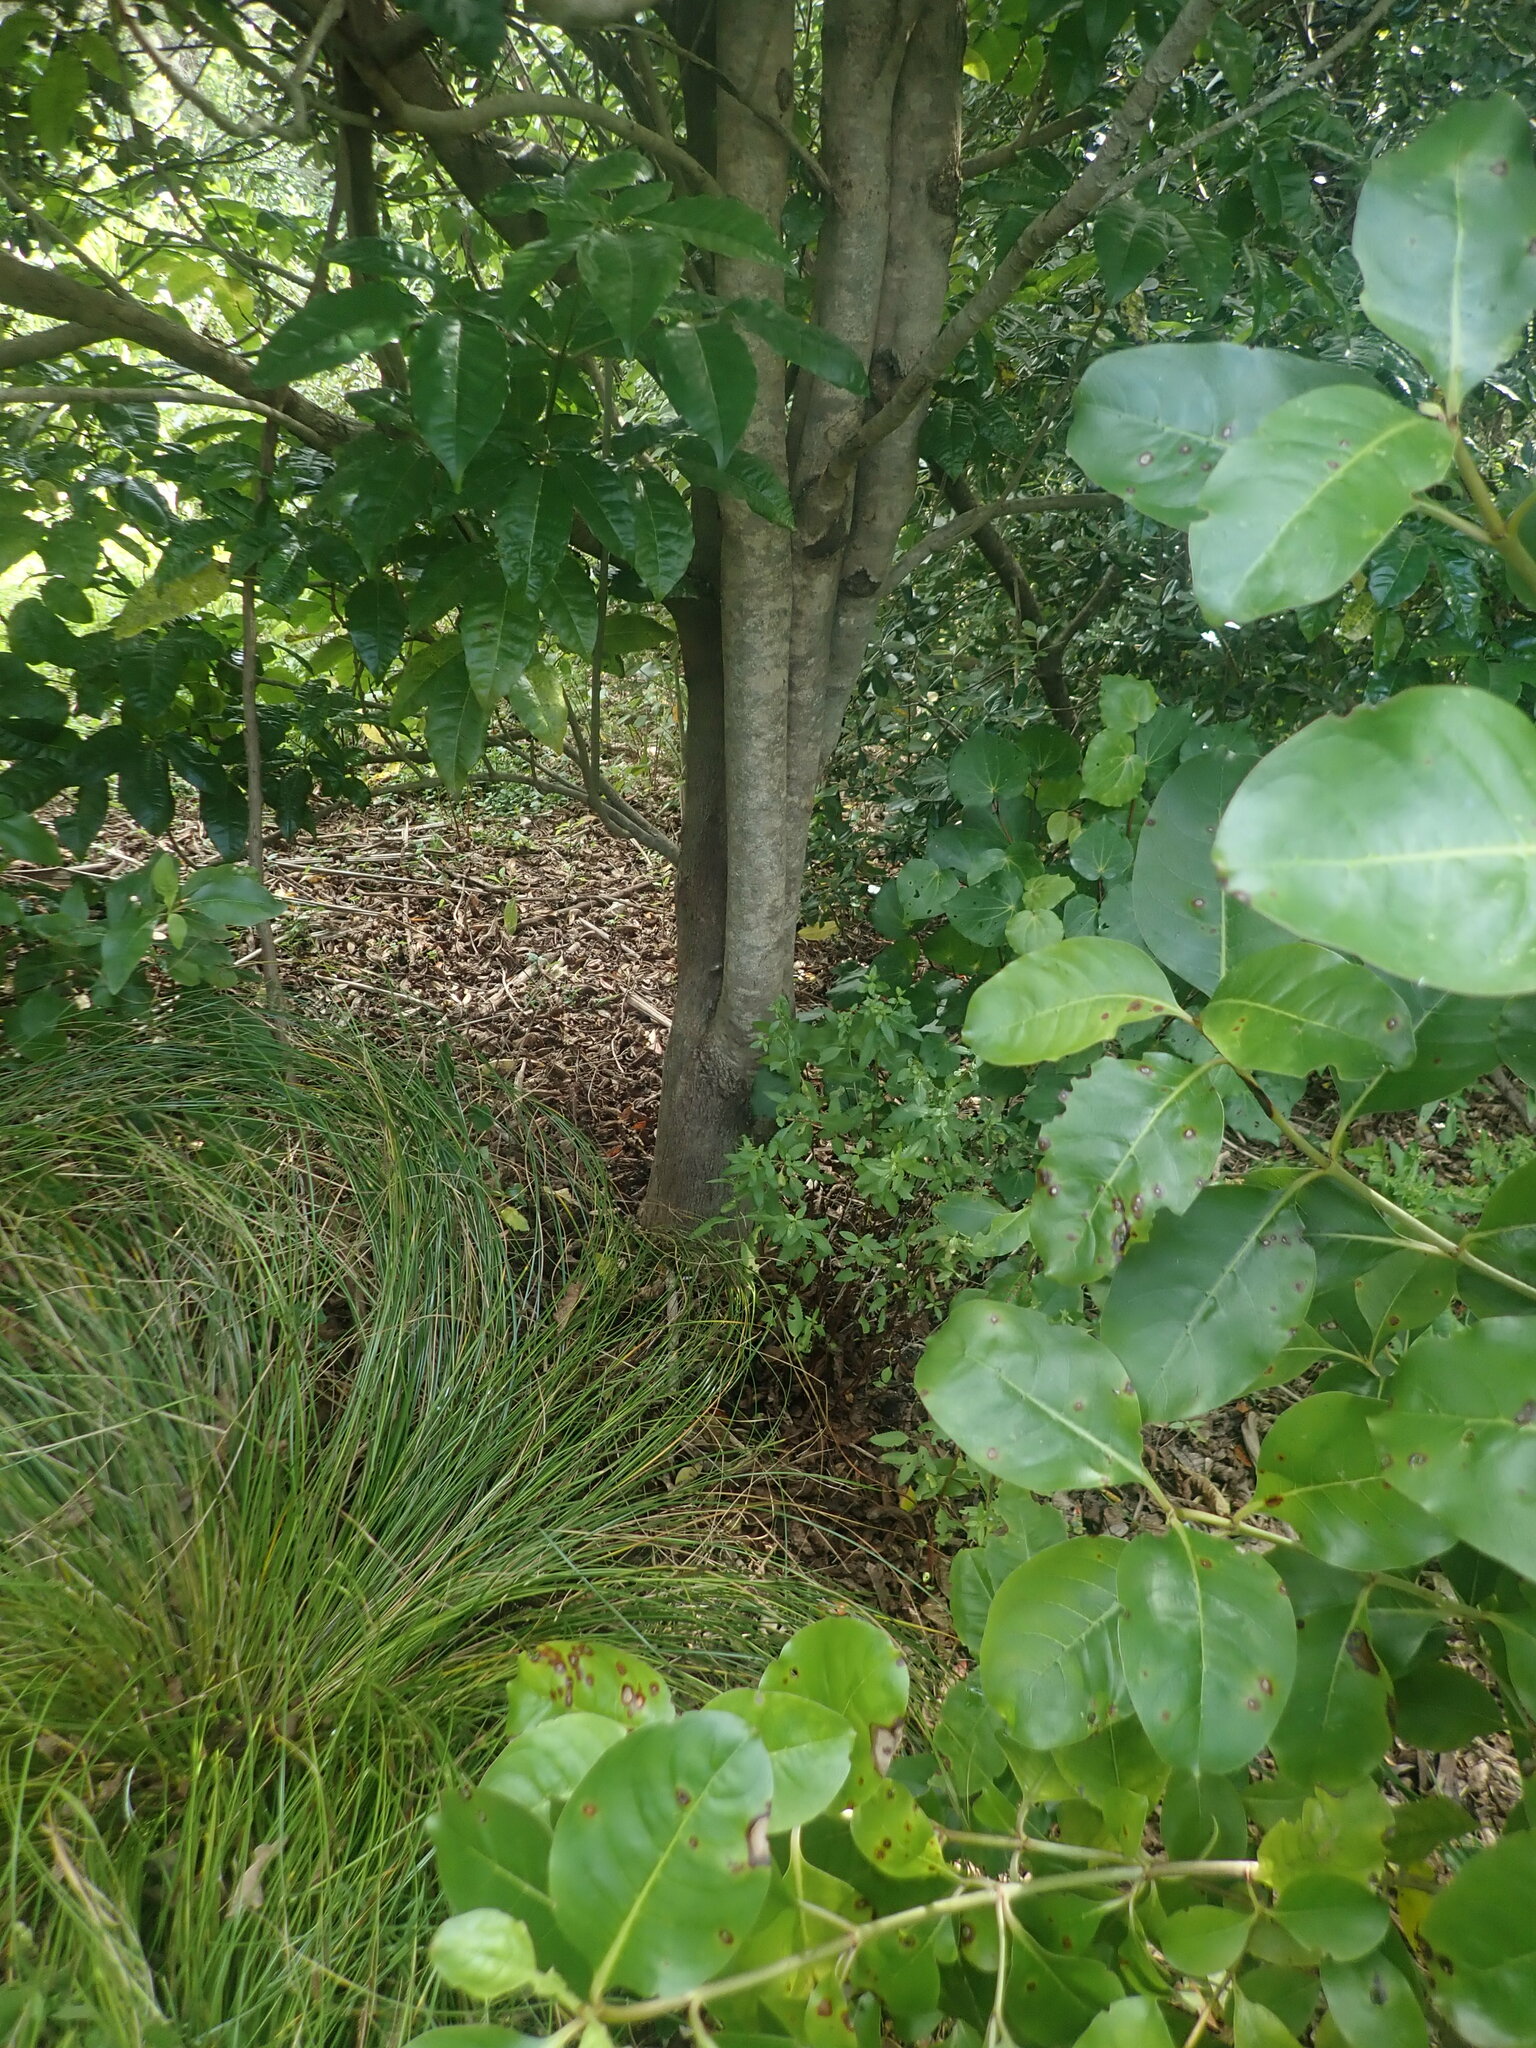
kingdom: Plantae
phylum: Tracheophyta
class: Magnoliopsida
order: Lamiales
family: Lamiaceae
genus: Vitex
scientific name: Vitex lucens
